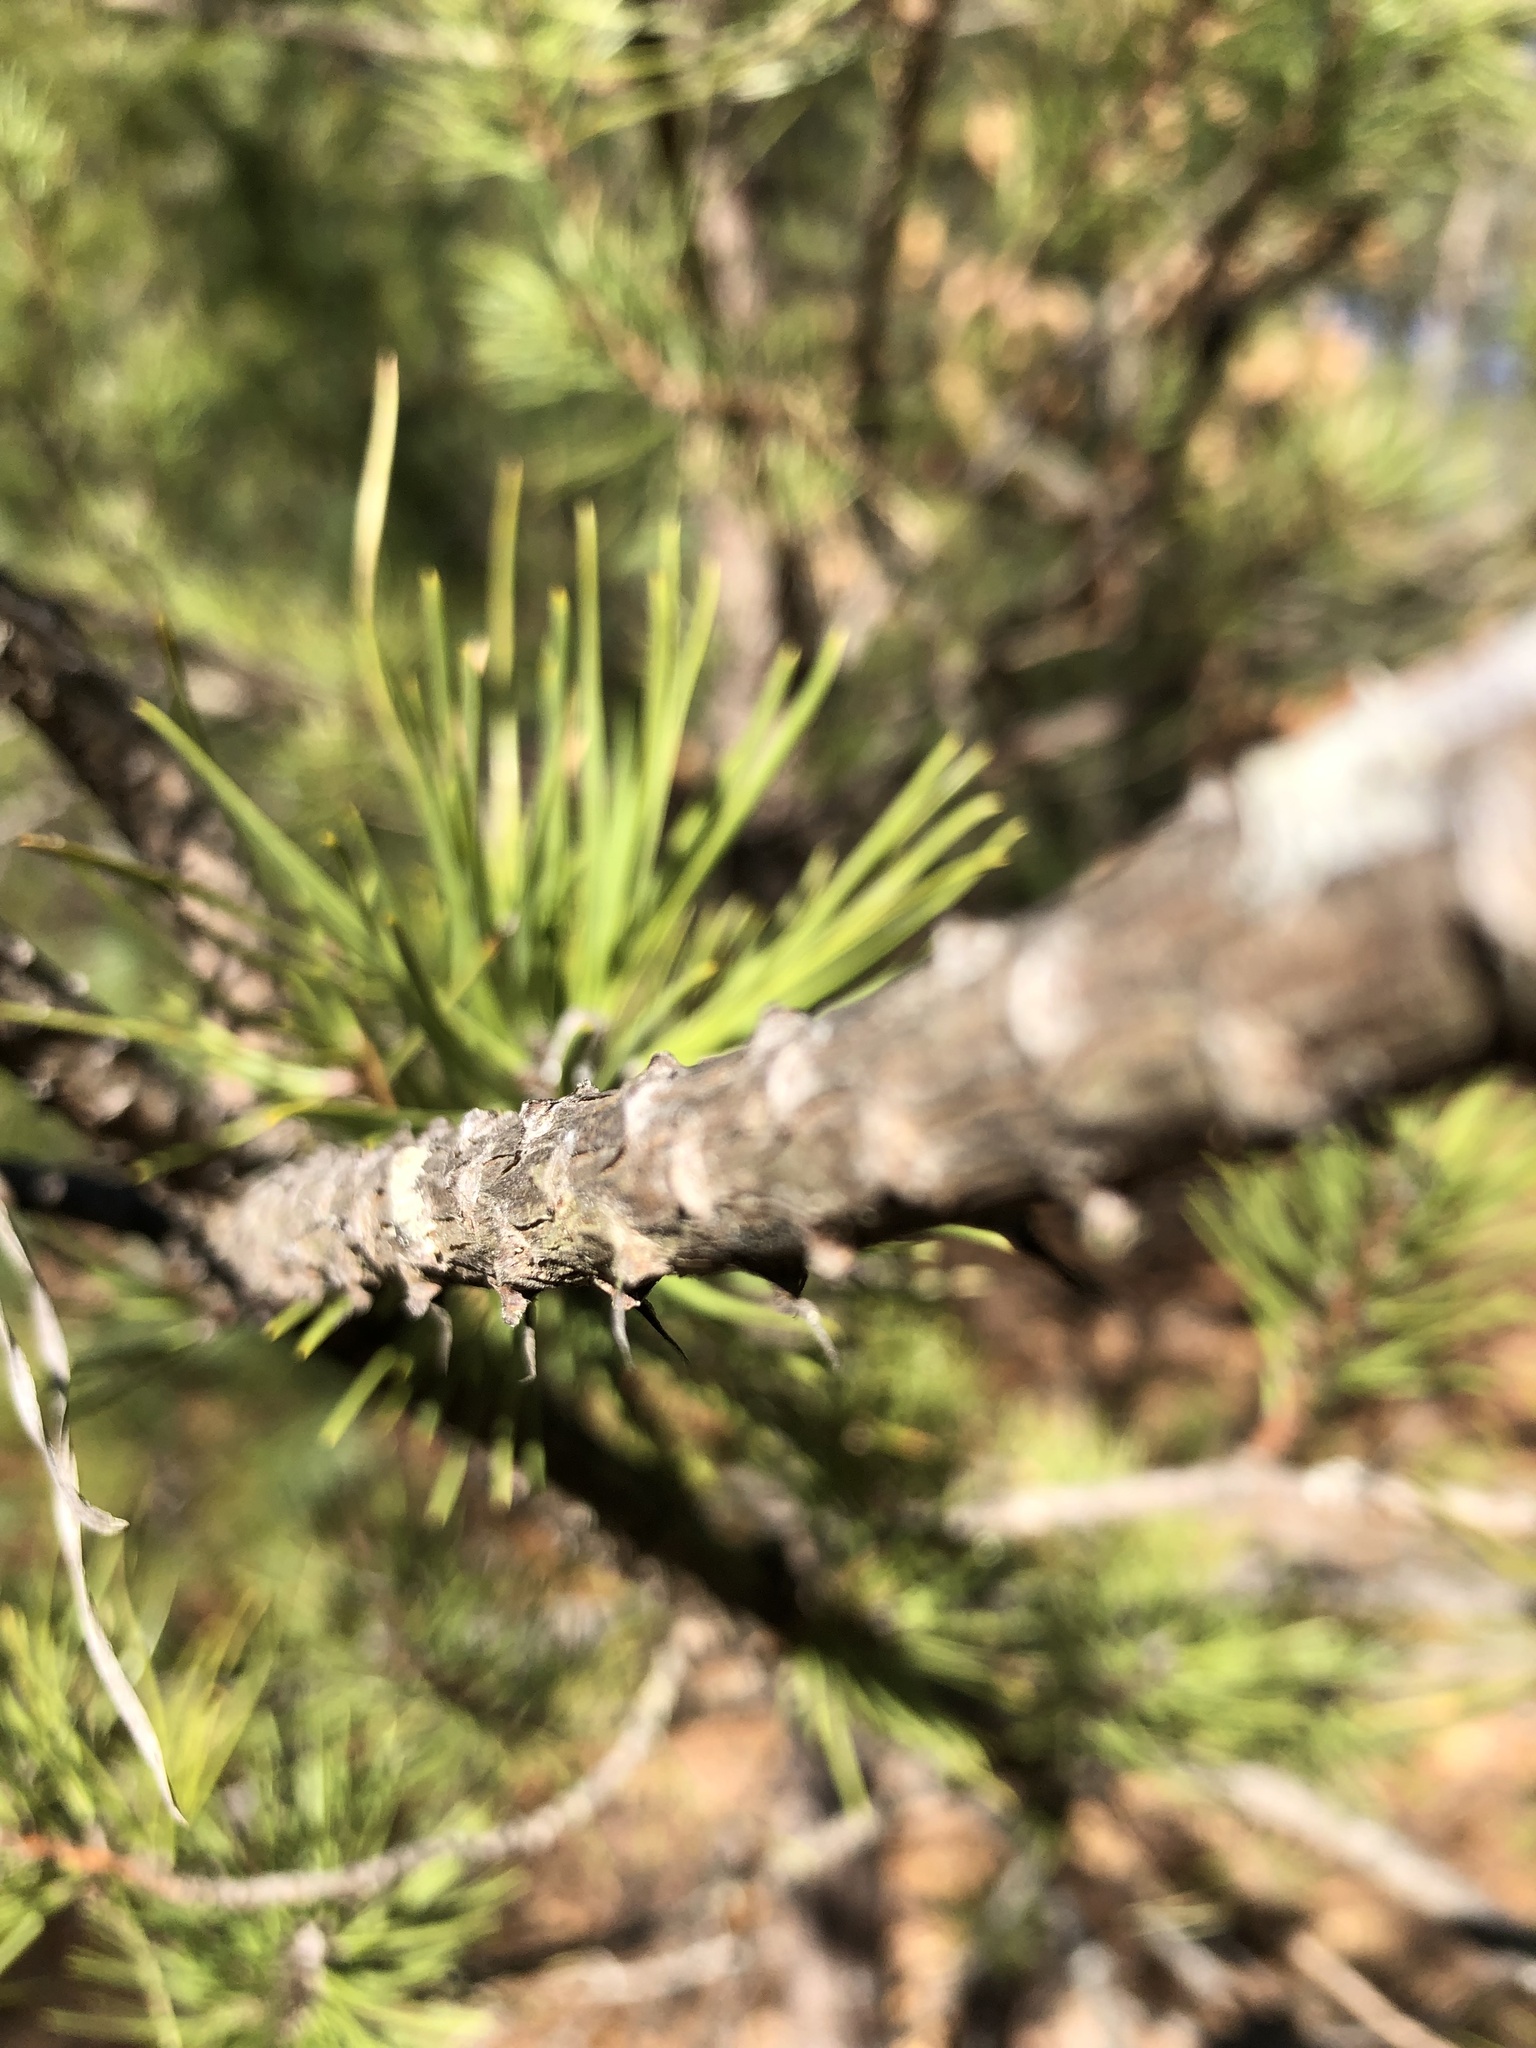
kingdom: Plantae
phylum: Tracheophyta
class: Pinopsida
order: Pinales
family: Pinaceae
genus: Pinus
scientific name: Pinus banksiana
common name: Jack pine
